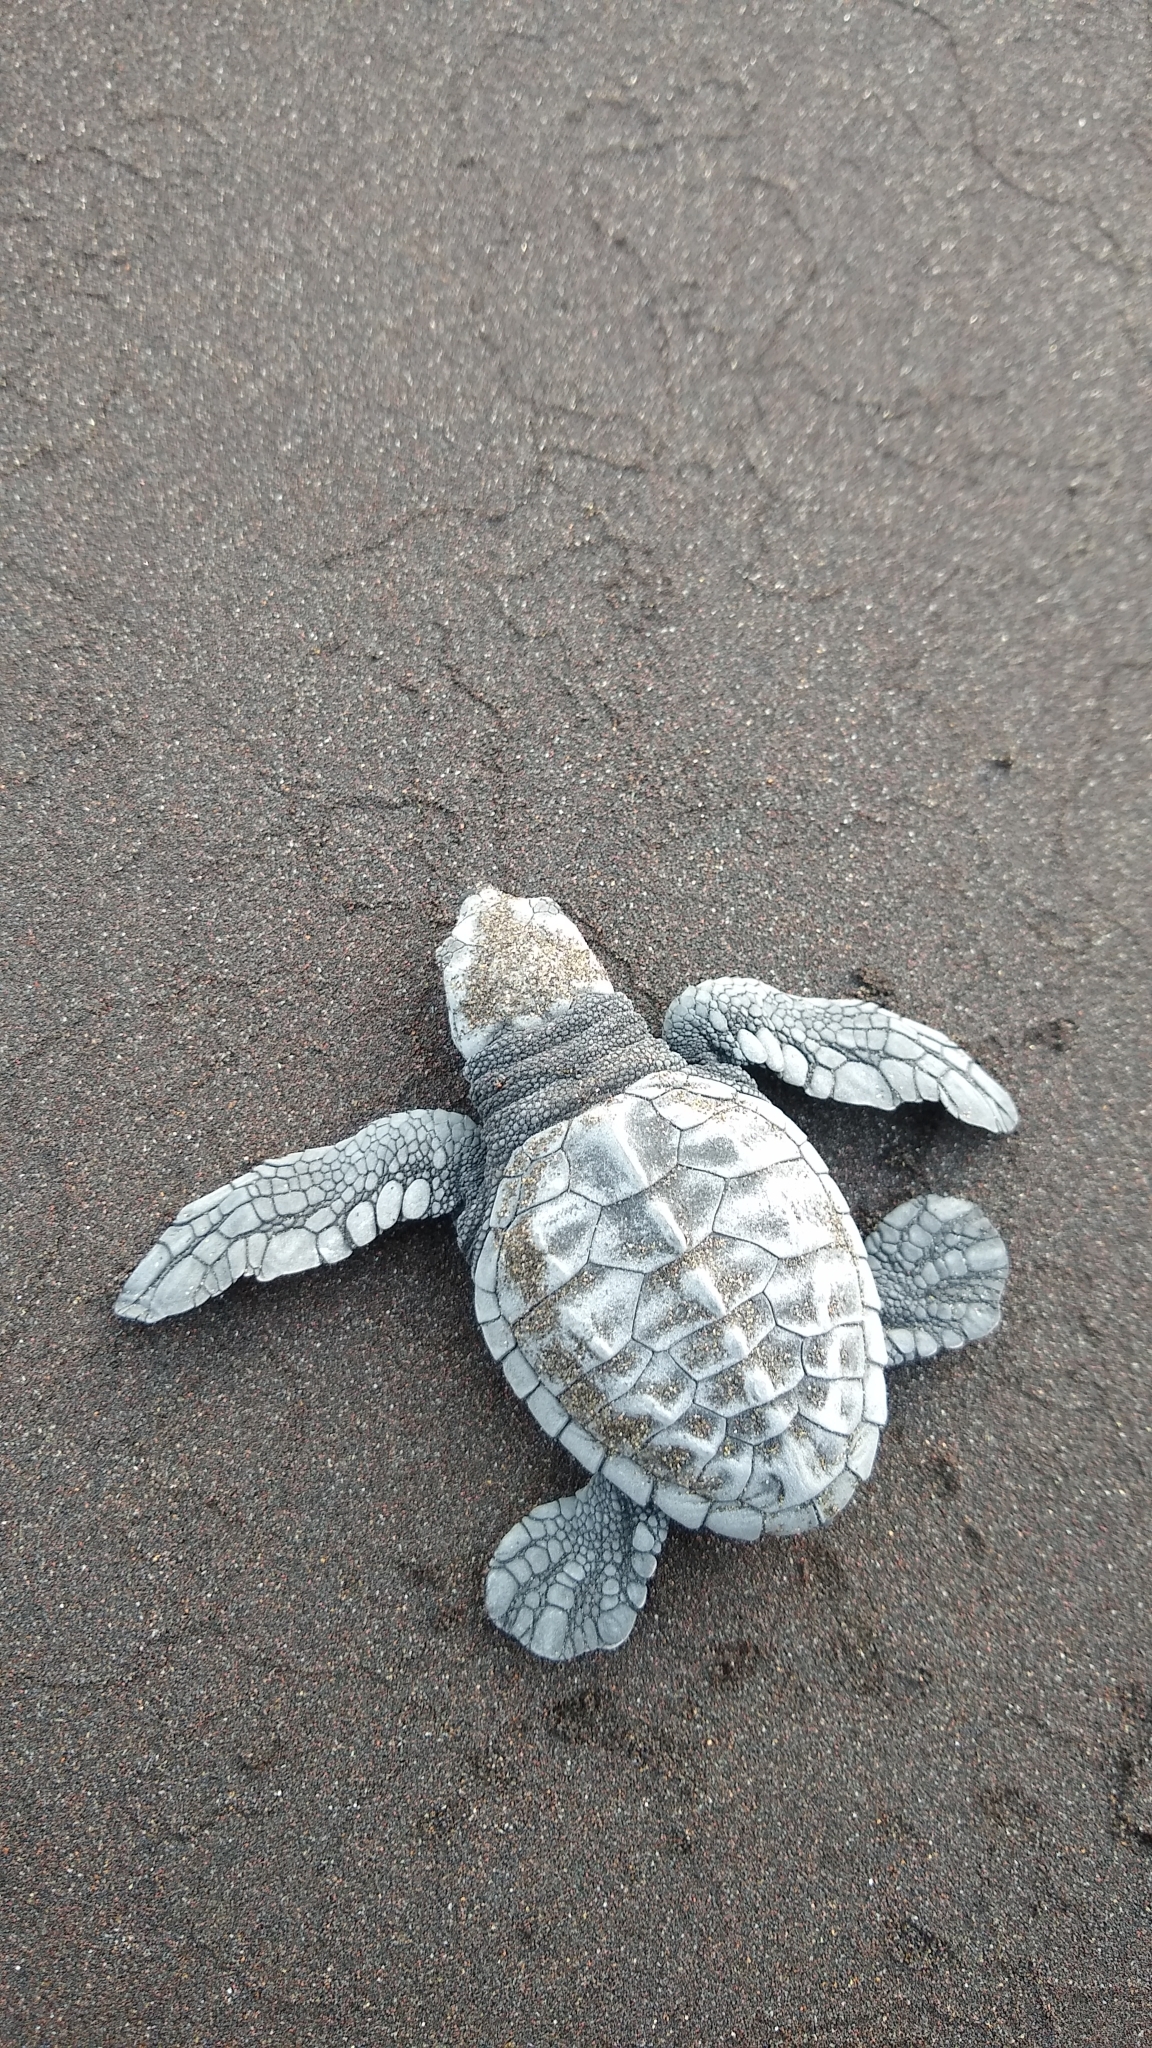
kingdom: Animalia
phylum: Chordata
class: Testudines
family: Cheloniidae
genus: Lepidochelys
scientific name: Lepidochelys olivacea
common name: Olive ridley
